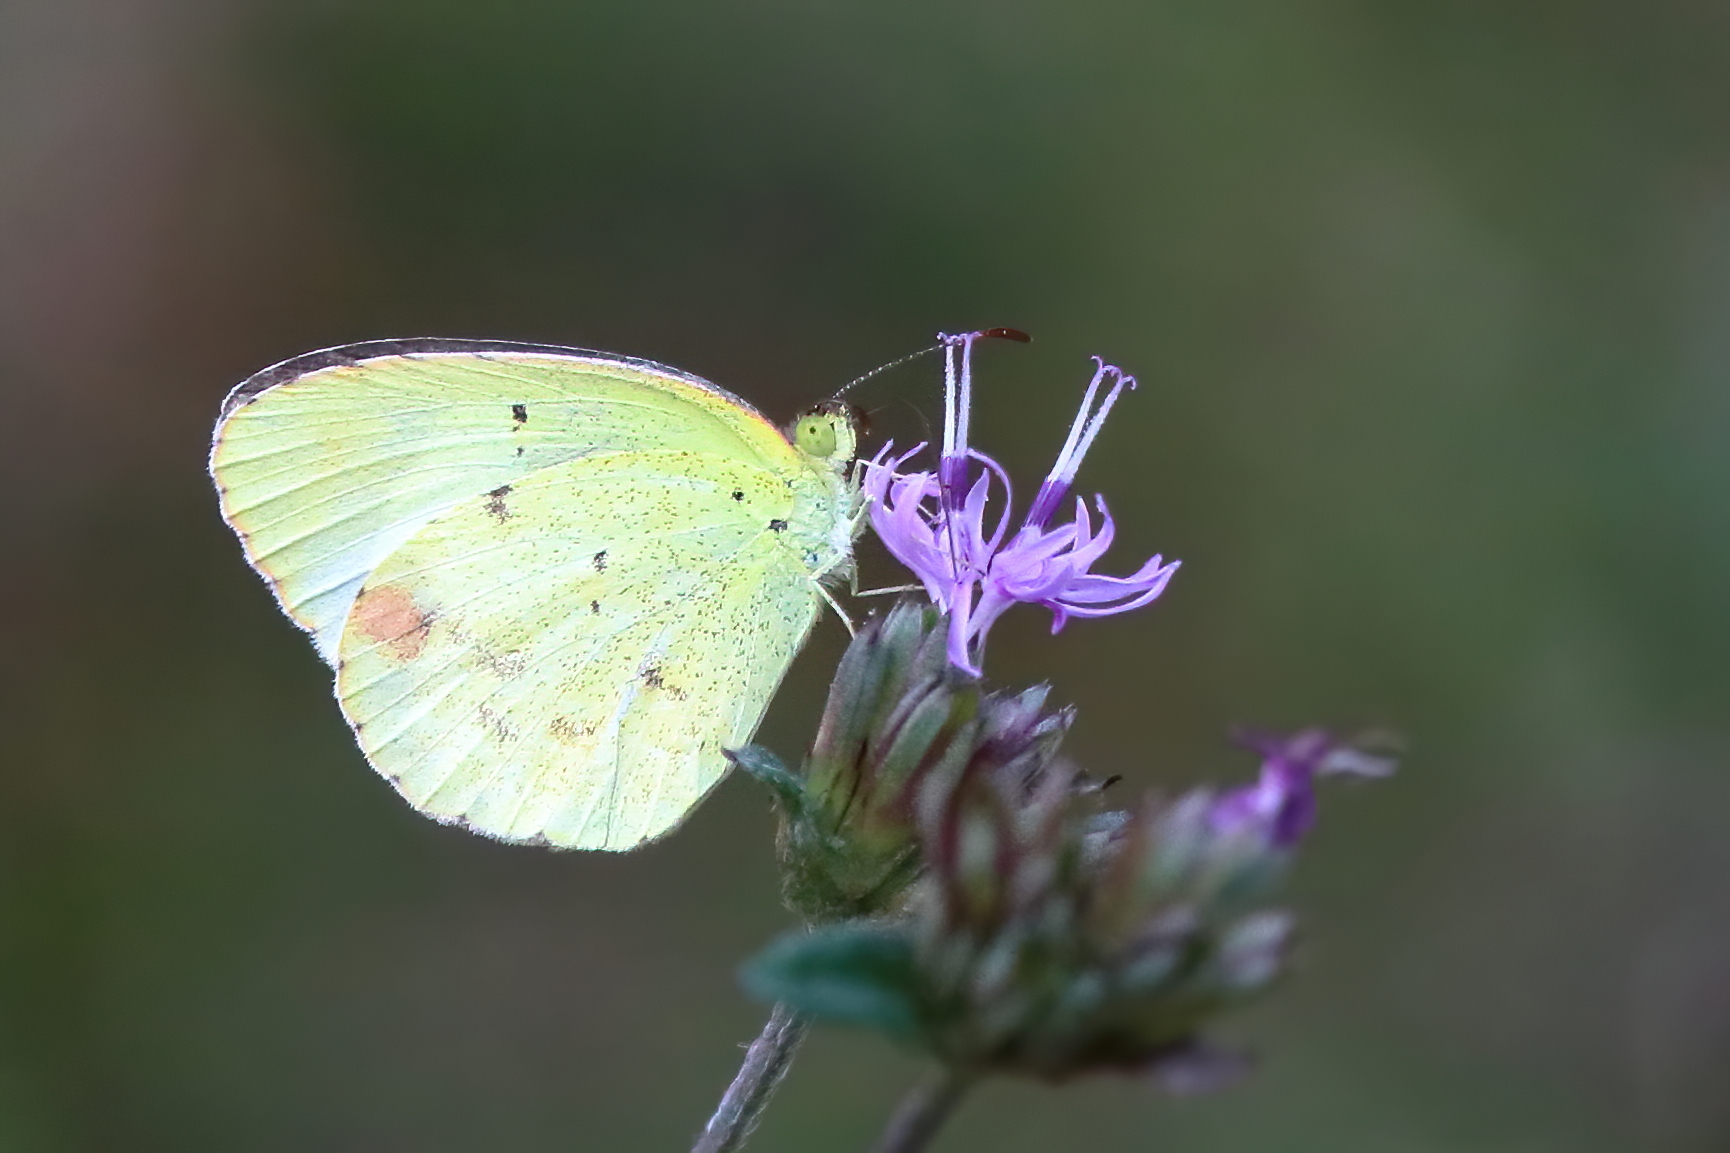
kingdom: Animalia
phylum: Arthropoda
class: Insecta
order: Lepidoptera
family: Pieridae
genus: Pyrisitia
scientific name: Pyrisitia lisa
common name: Little yellow
